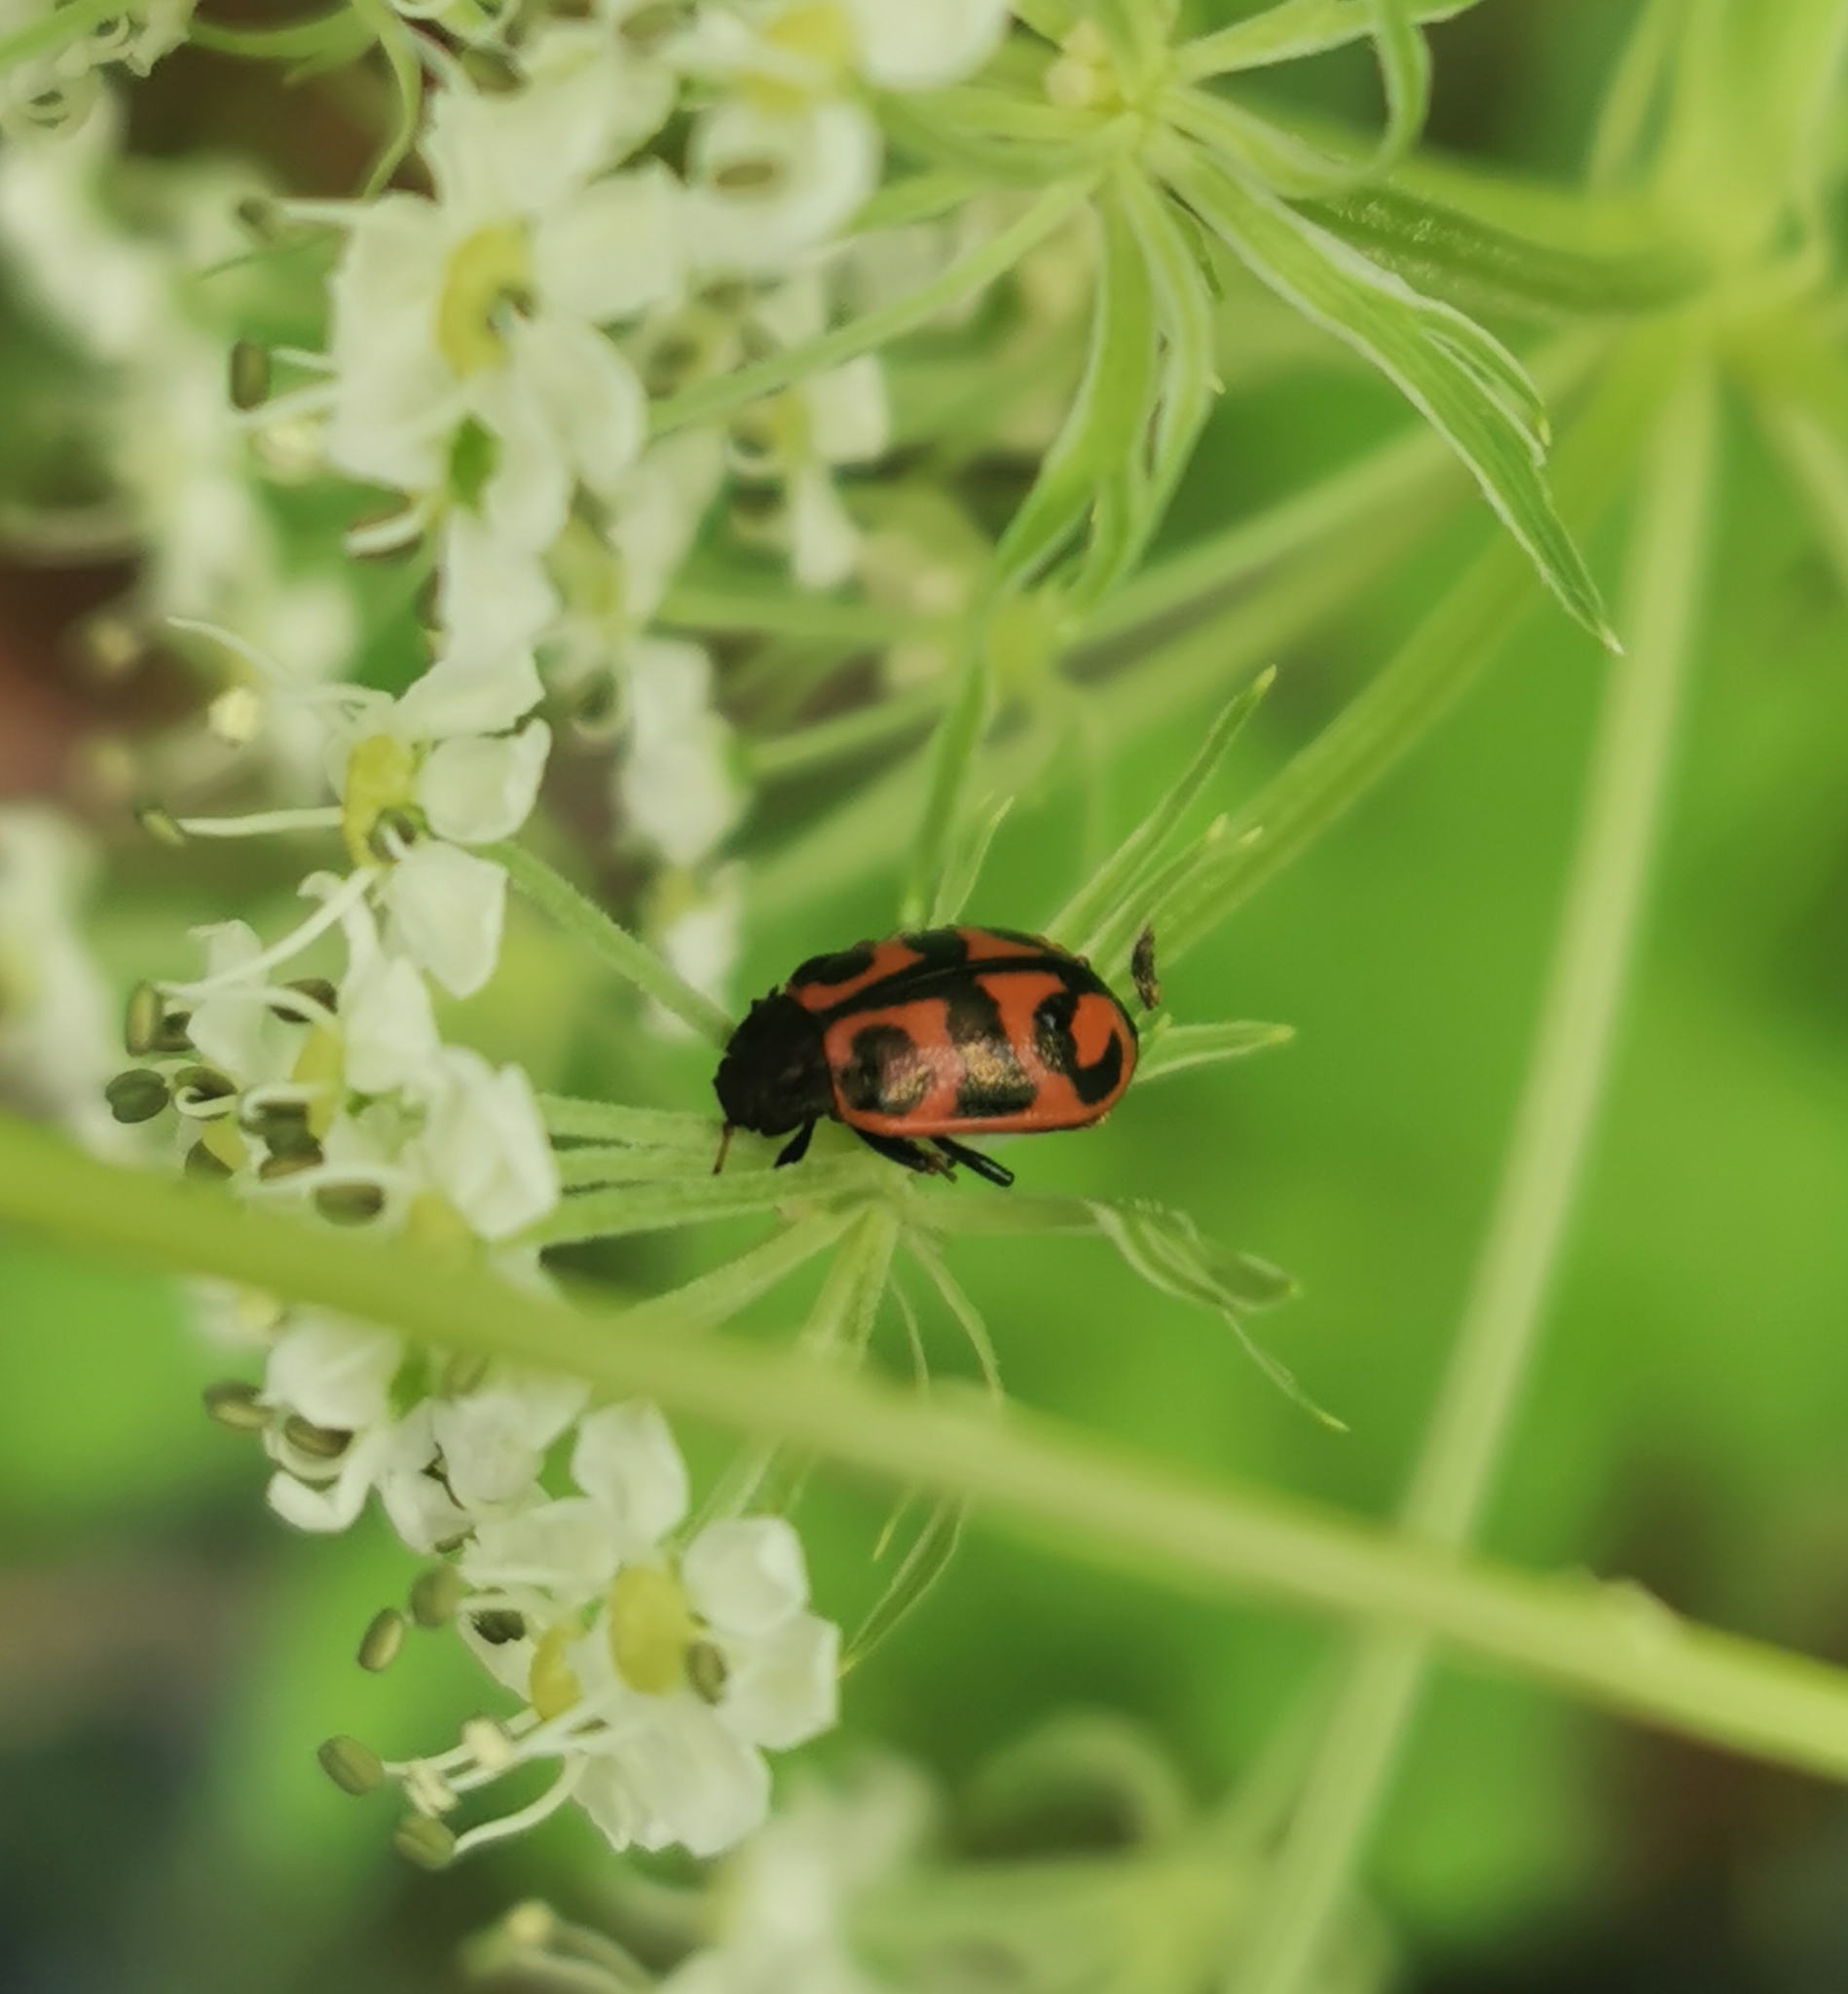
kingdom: Animalia
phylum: Arthropoda
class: Insecta
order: Coleoptera
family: Chrysomelidae
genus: Chrysomela
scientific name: Chrysomela lapponica
